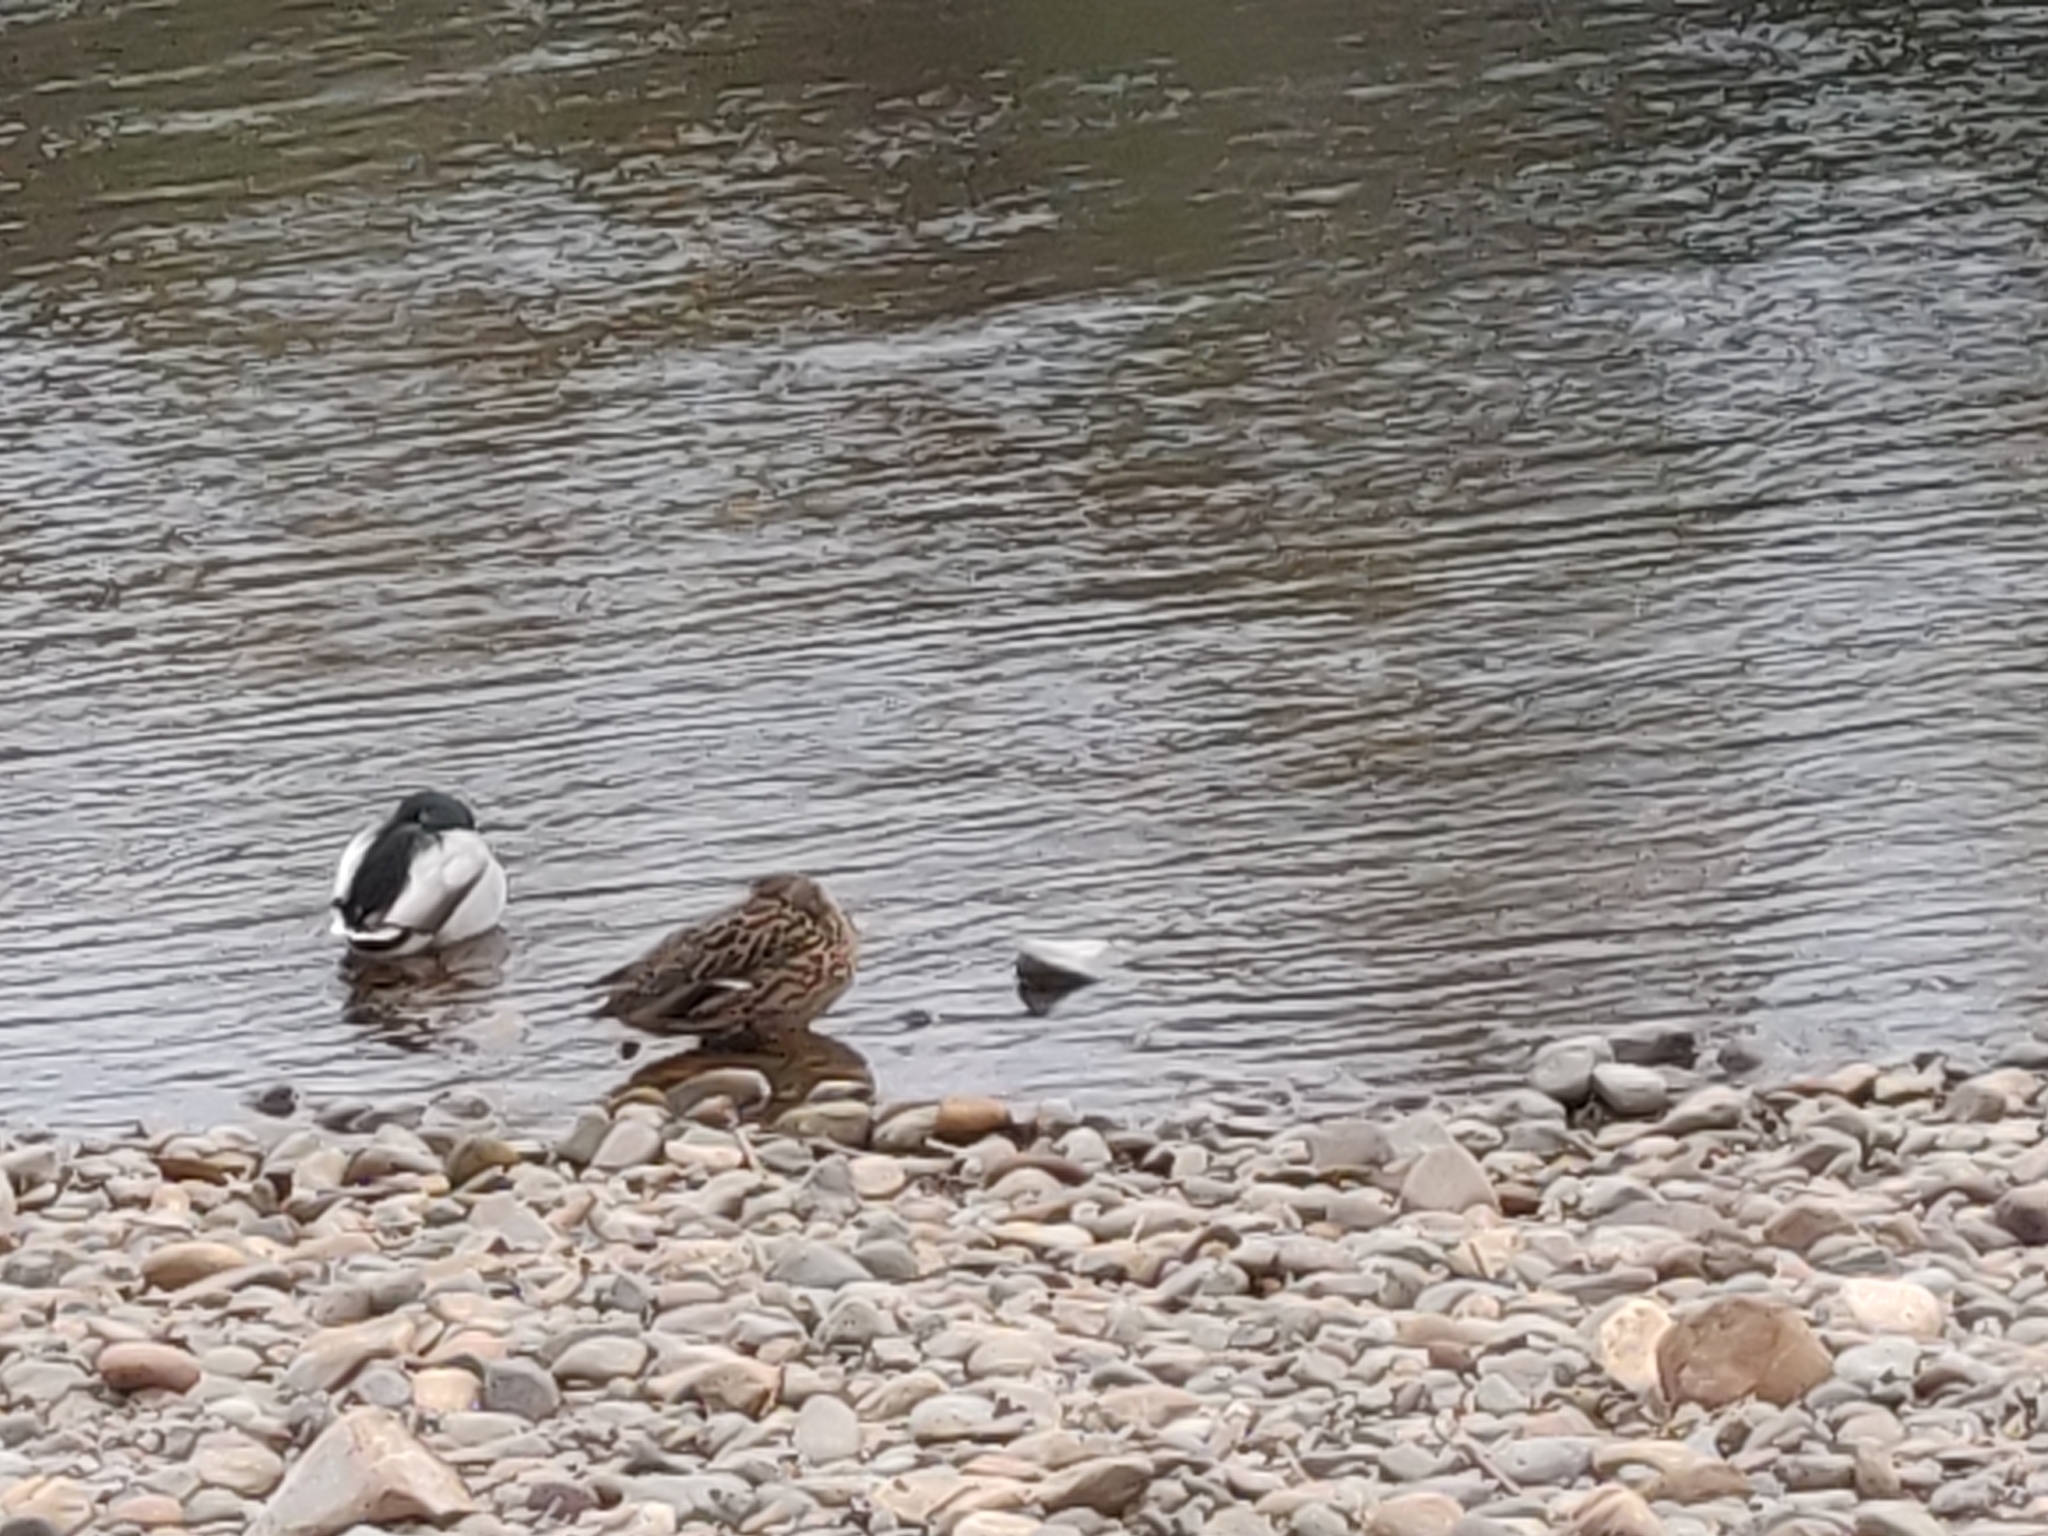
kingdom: Animalia
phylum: Chordata
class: Aves
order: Anseriformes
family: Anatidae
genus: Anas
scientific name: Anas platyrhynchos
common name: Mallard
